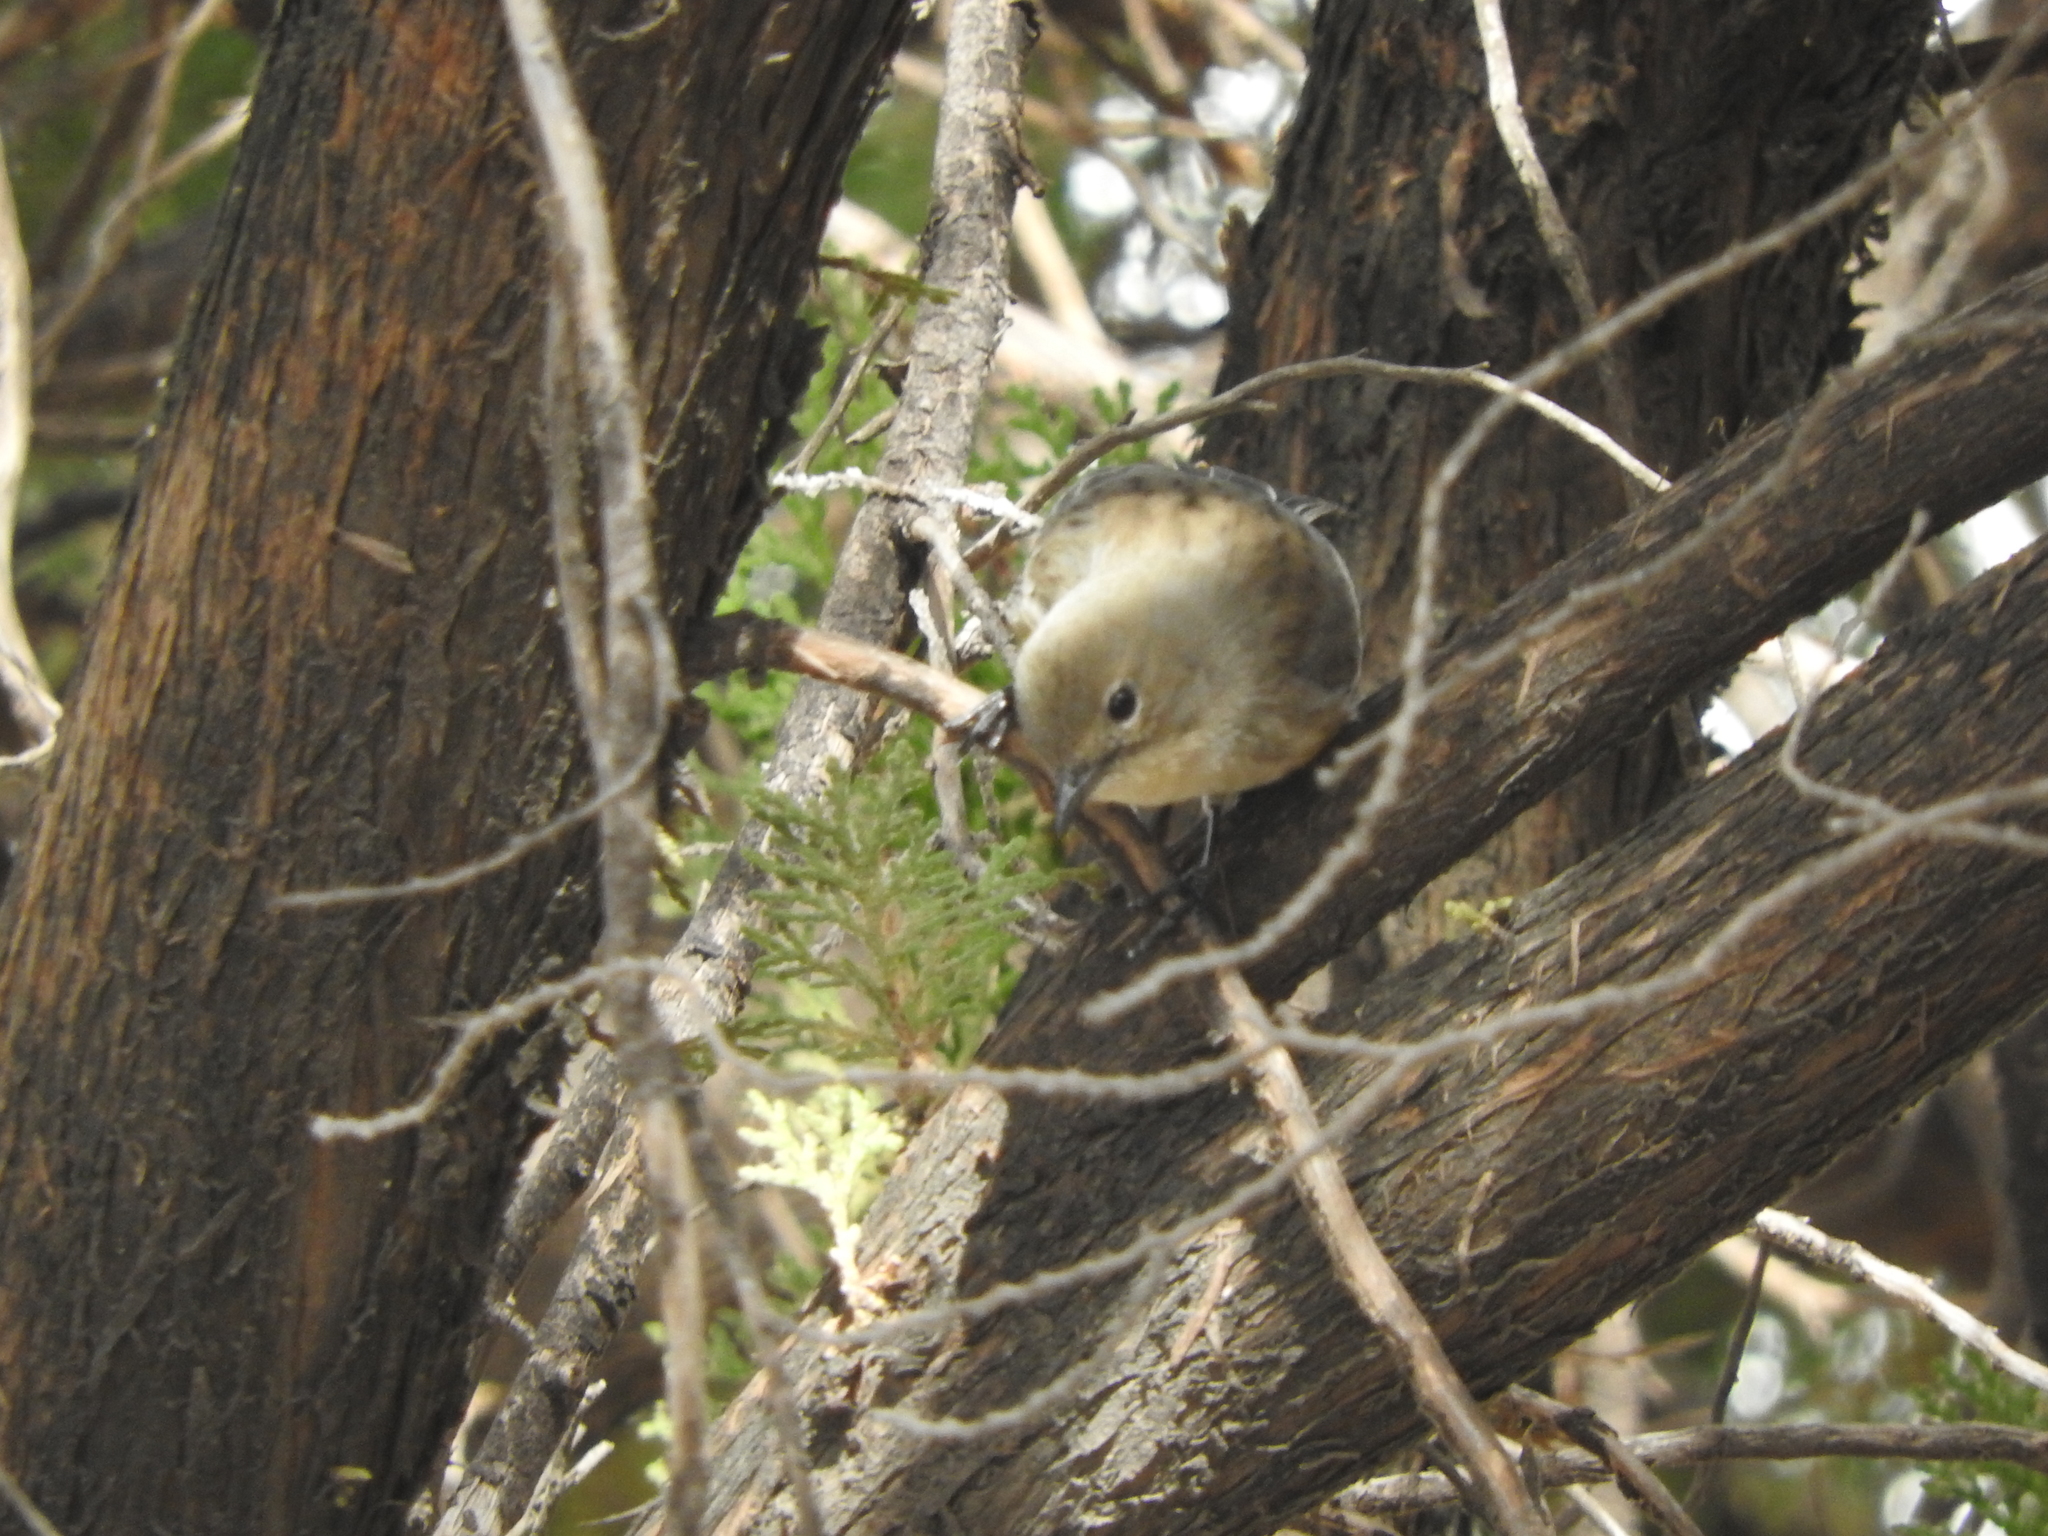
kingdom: Animalia
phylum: Chordata
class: Aves
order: Passeriformes
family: Parulidae
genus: Setophaga
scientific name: Setophaga coronata
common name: Myrtle warbler
